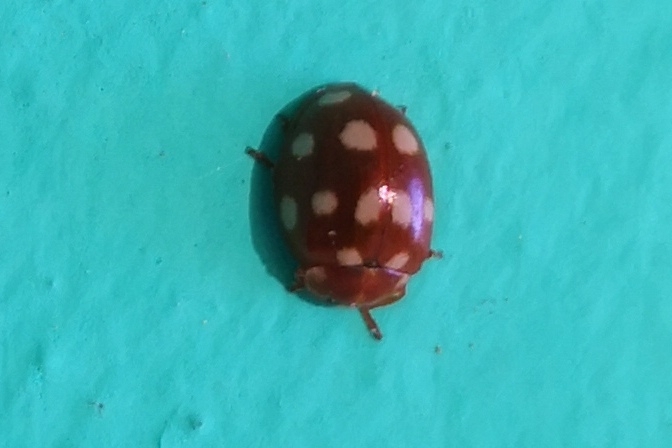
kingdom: Animalia
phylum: Arthropoda
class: Insecta
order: Coleoptera
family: Coccinellidae
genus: Calvia
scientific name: Calvia quatuordecimguttata
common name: Cream-spot ladybird
